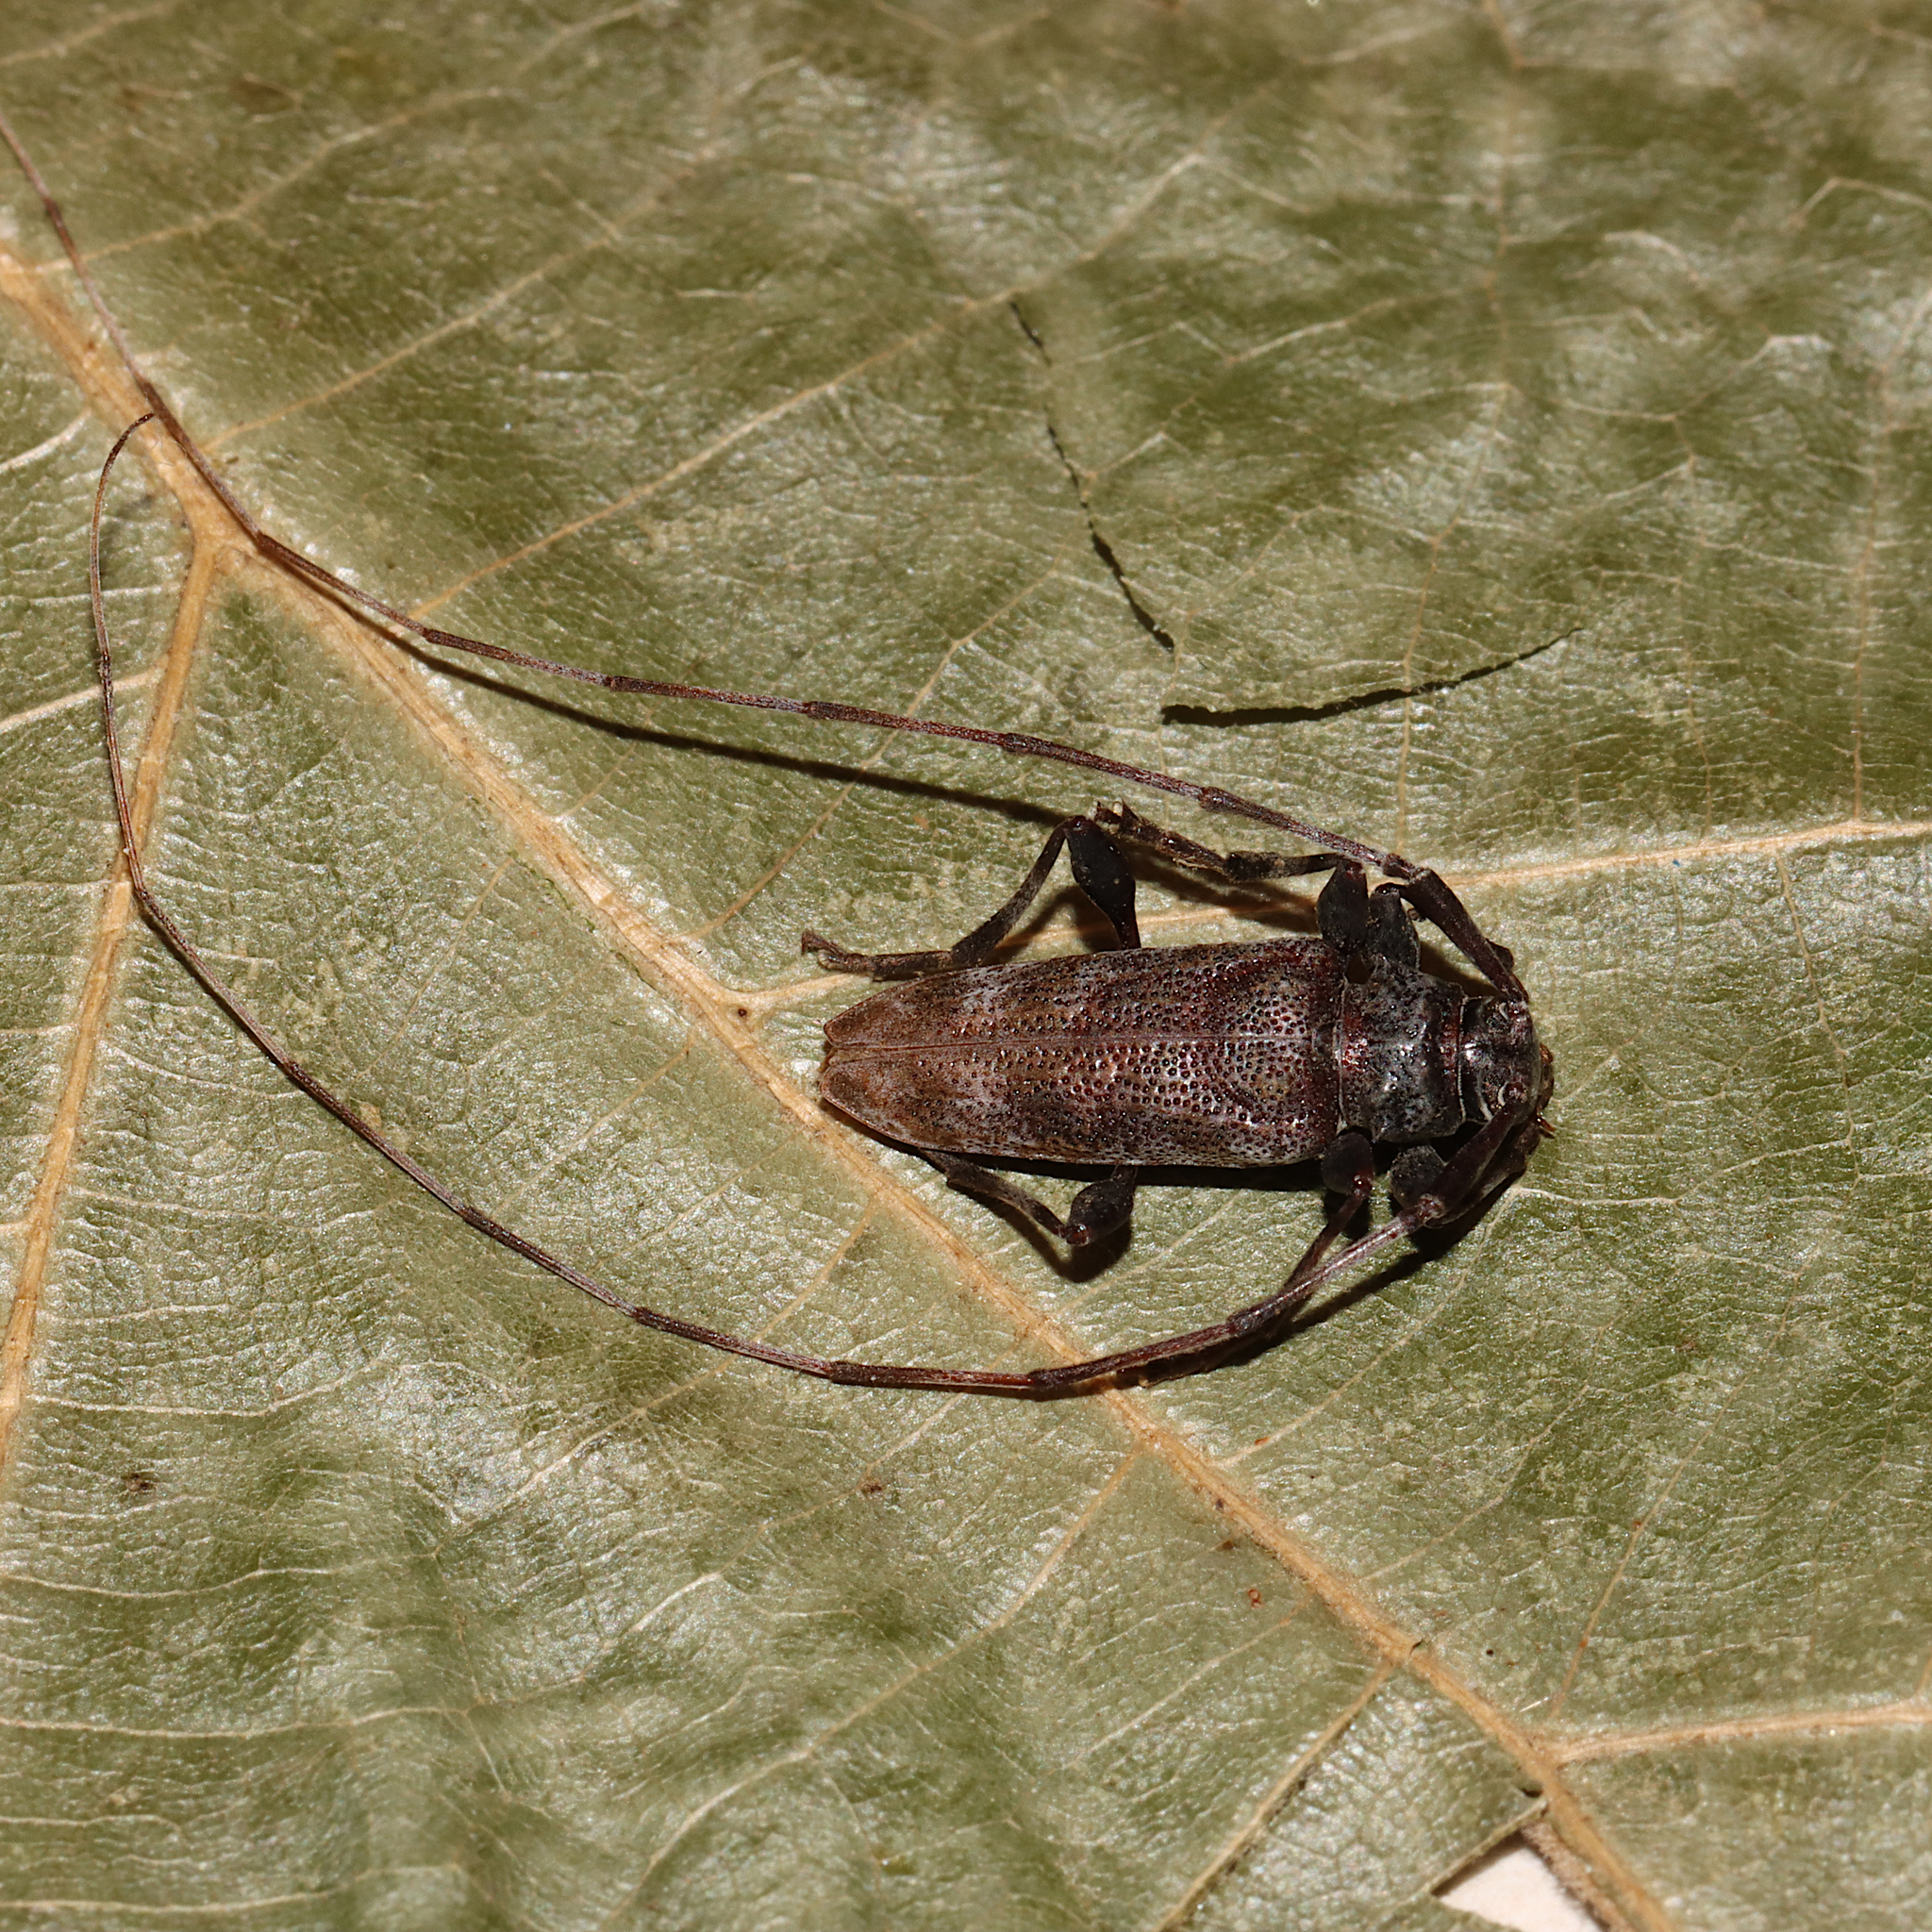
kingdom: Animalia
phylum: Arthropoda
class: Insecta
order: Coleoptera
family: Cerambycidae
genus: Acanthocinus
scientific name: Acanthocinus obsoletus
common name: Roundheaded borer
